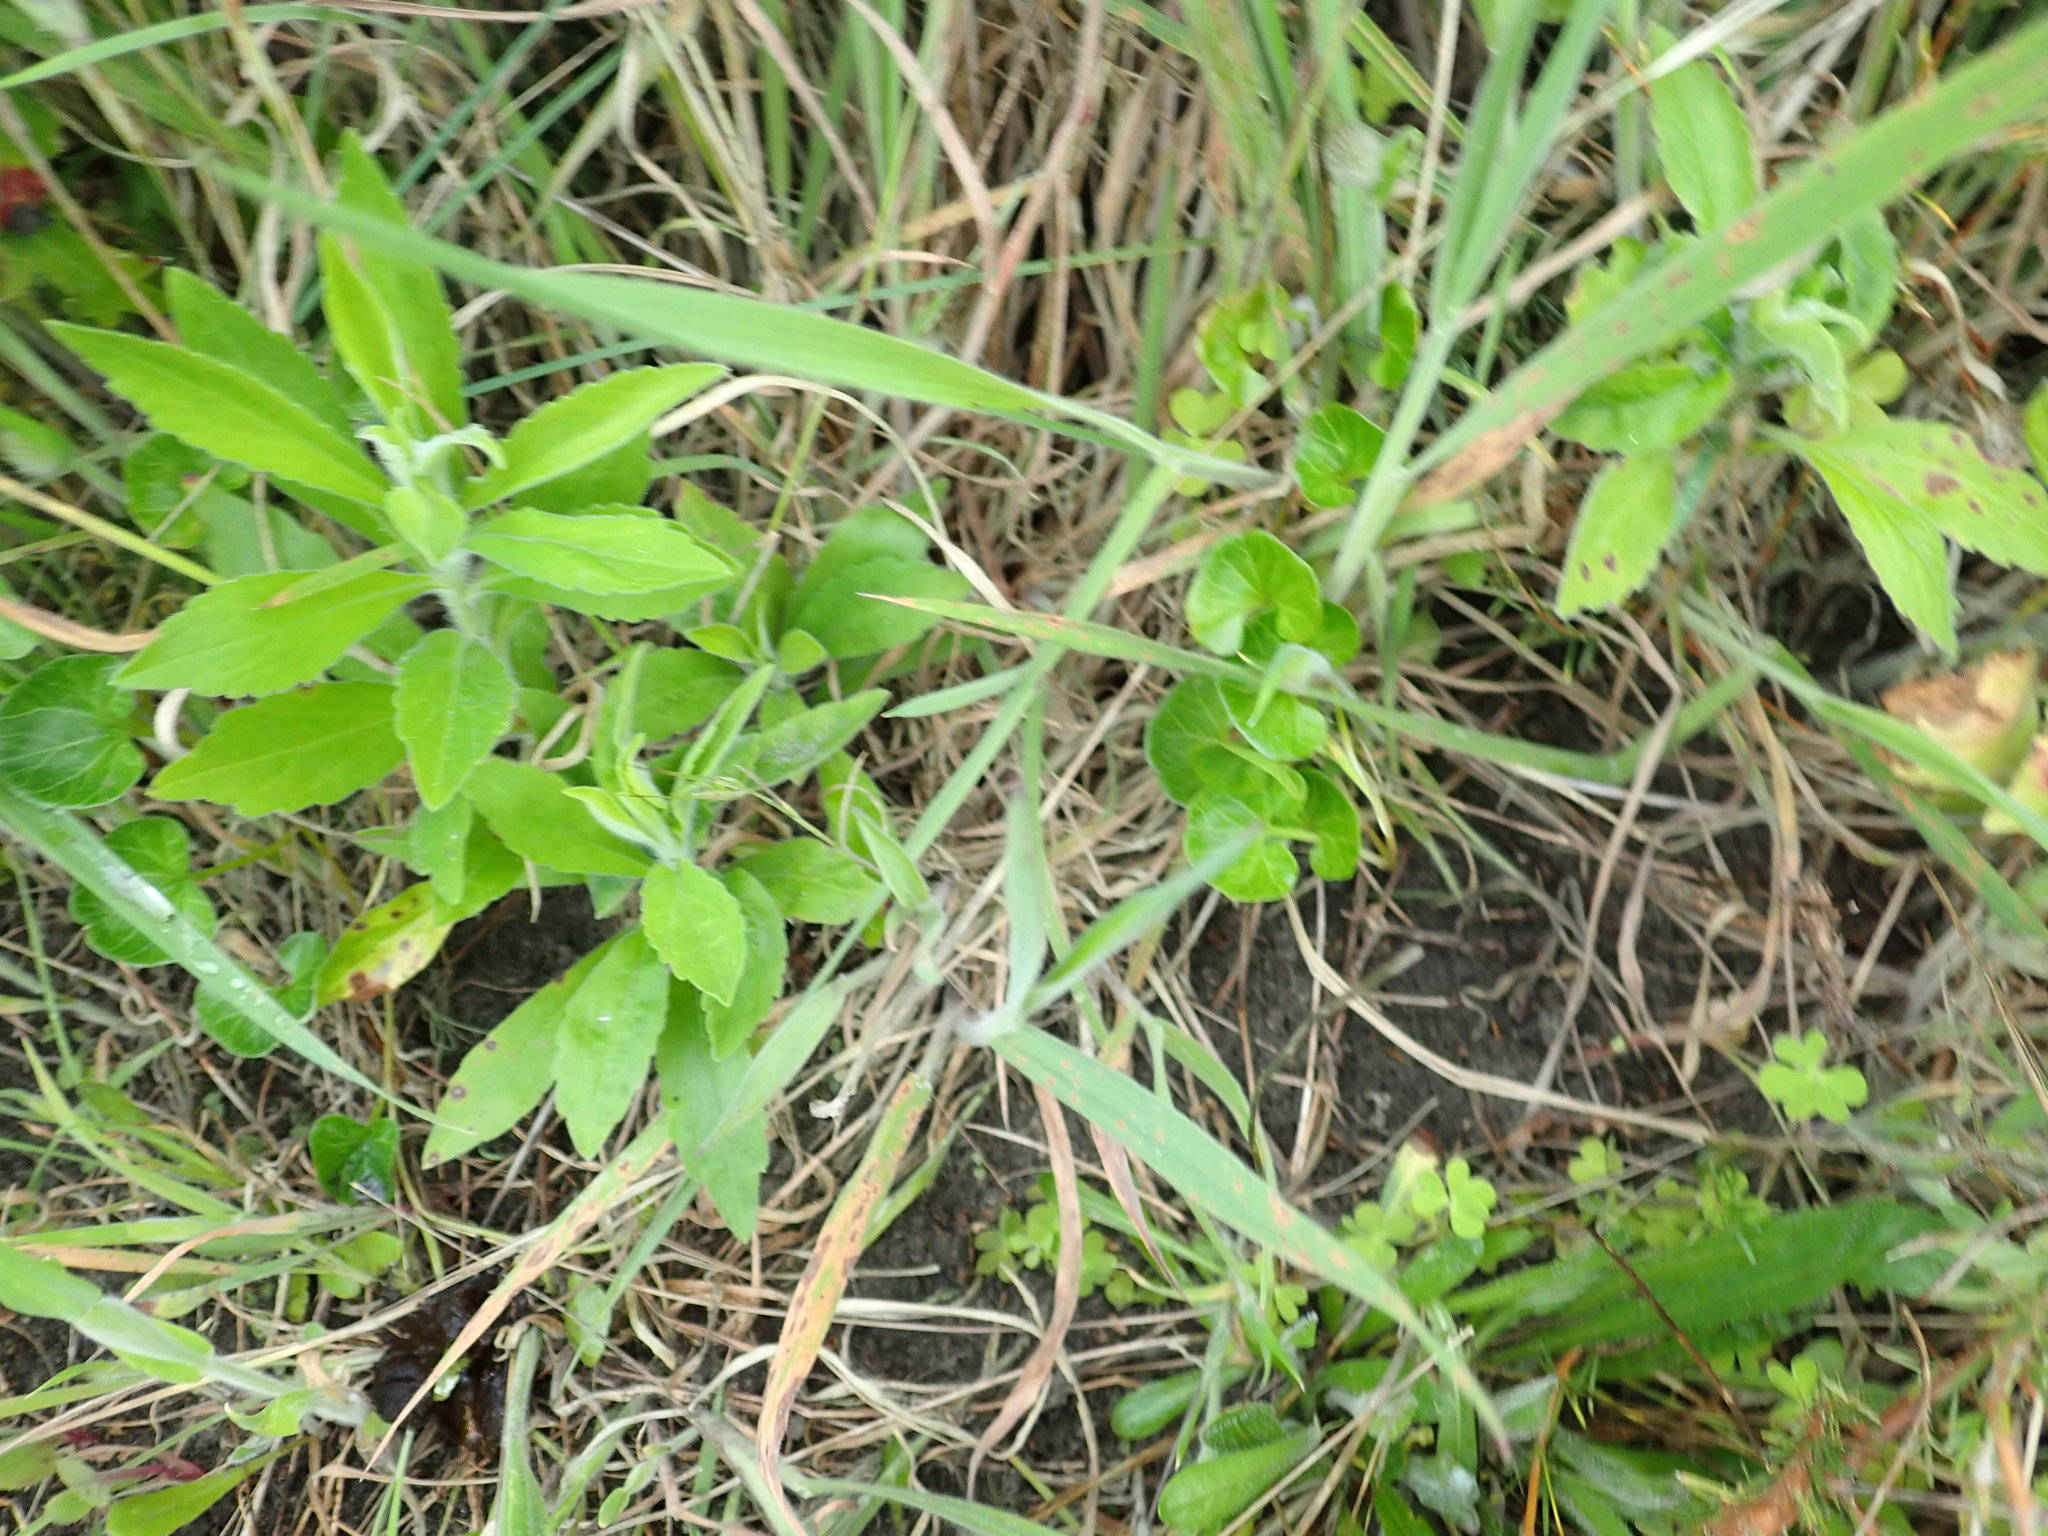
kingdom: Plantae
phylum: Tracheophyta
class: Magnoliopsida
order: Solanales
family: Convolvulaceae
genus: Calystegia
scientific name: Calystegia soldanella
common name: Sea bindweed
